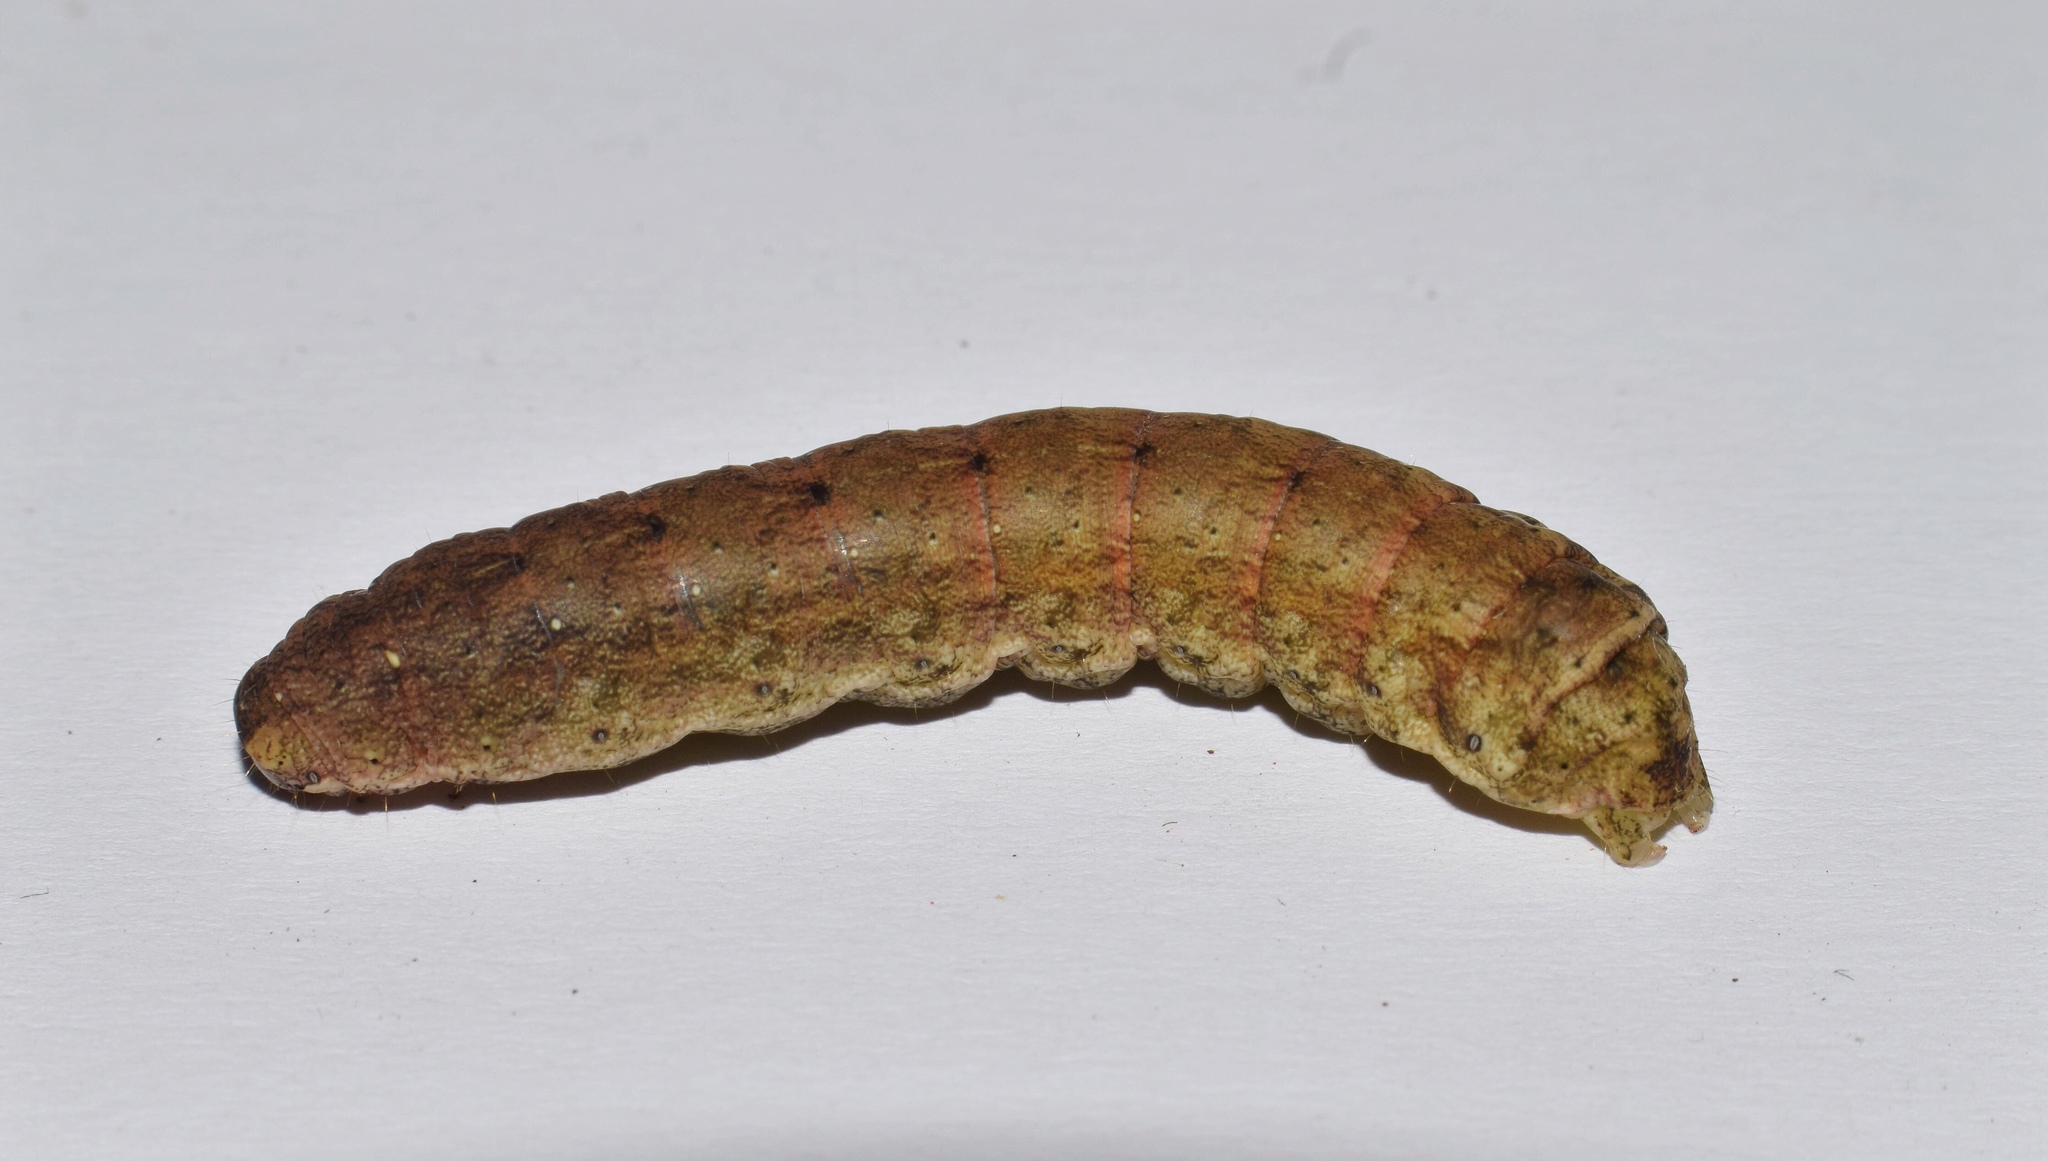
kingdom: Animalia
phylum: Arthropoda
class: Insecta
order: Lepidoptera
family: Noctuidae
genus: Mentaxya
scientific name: Mentaxya ignicollis
